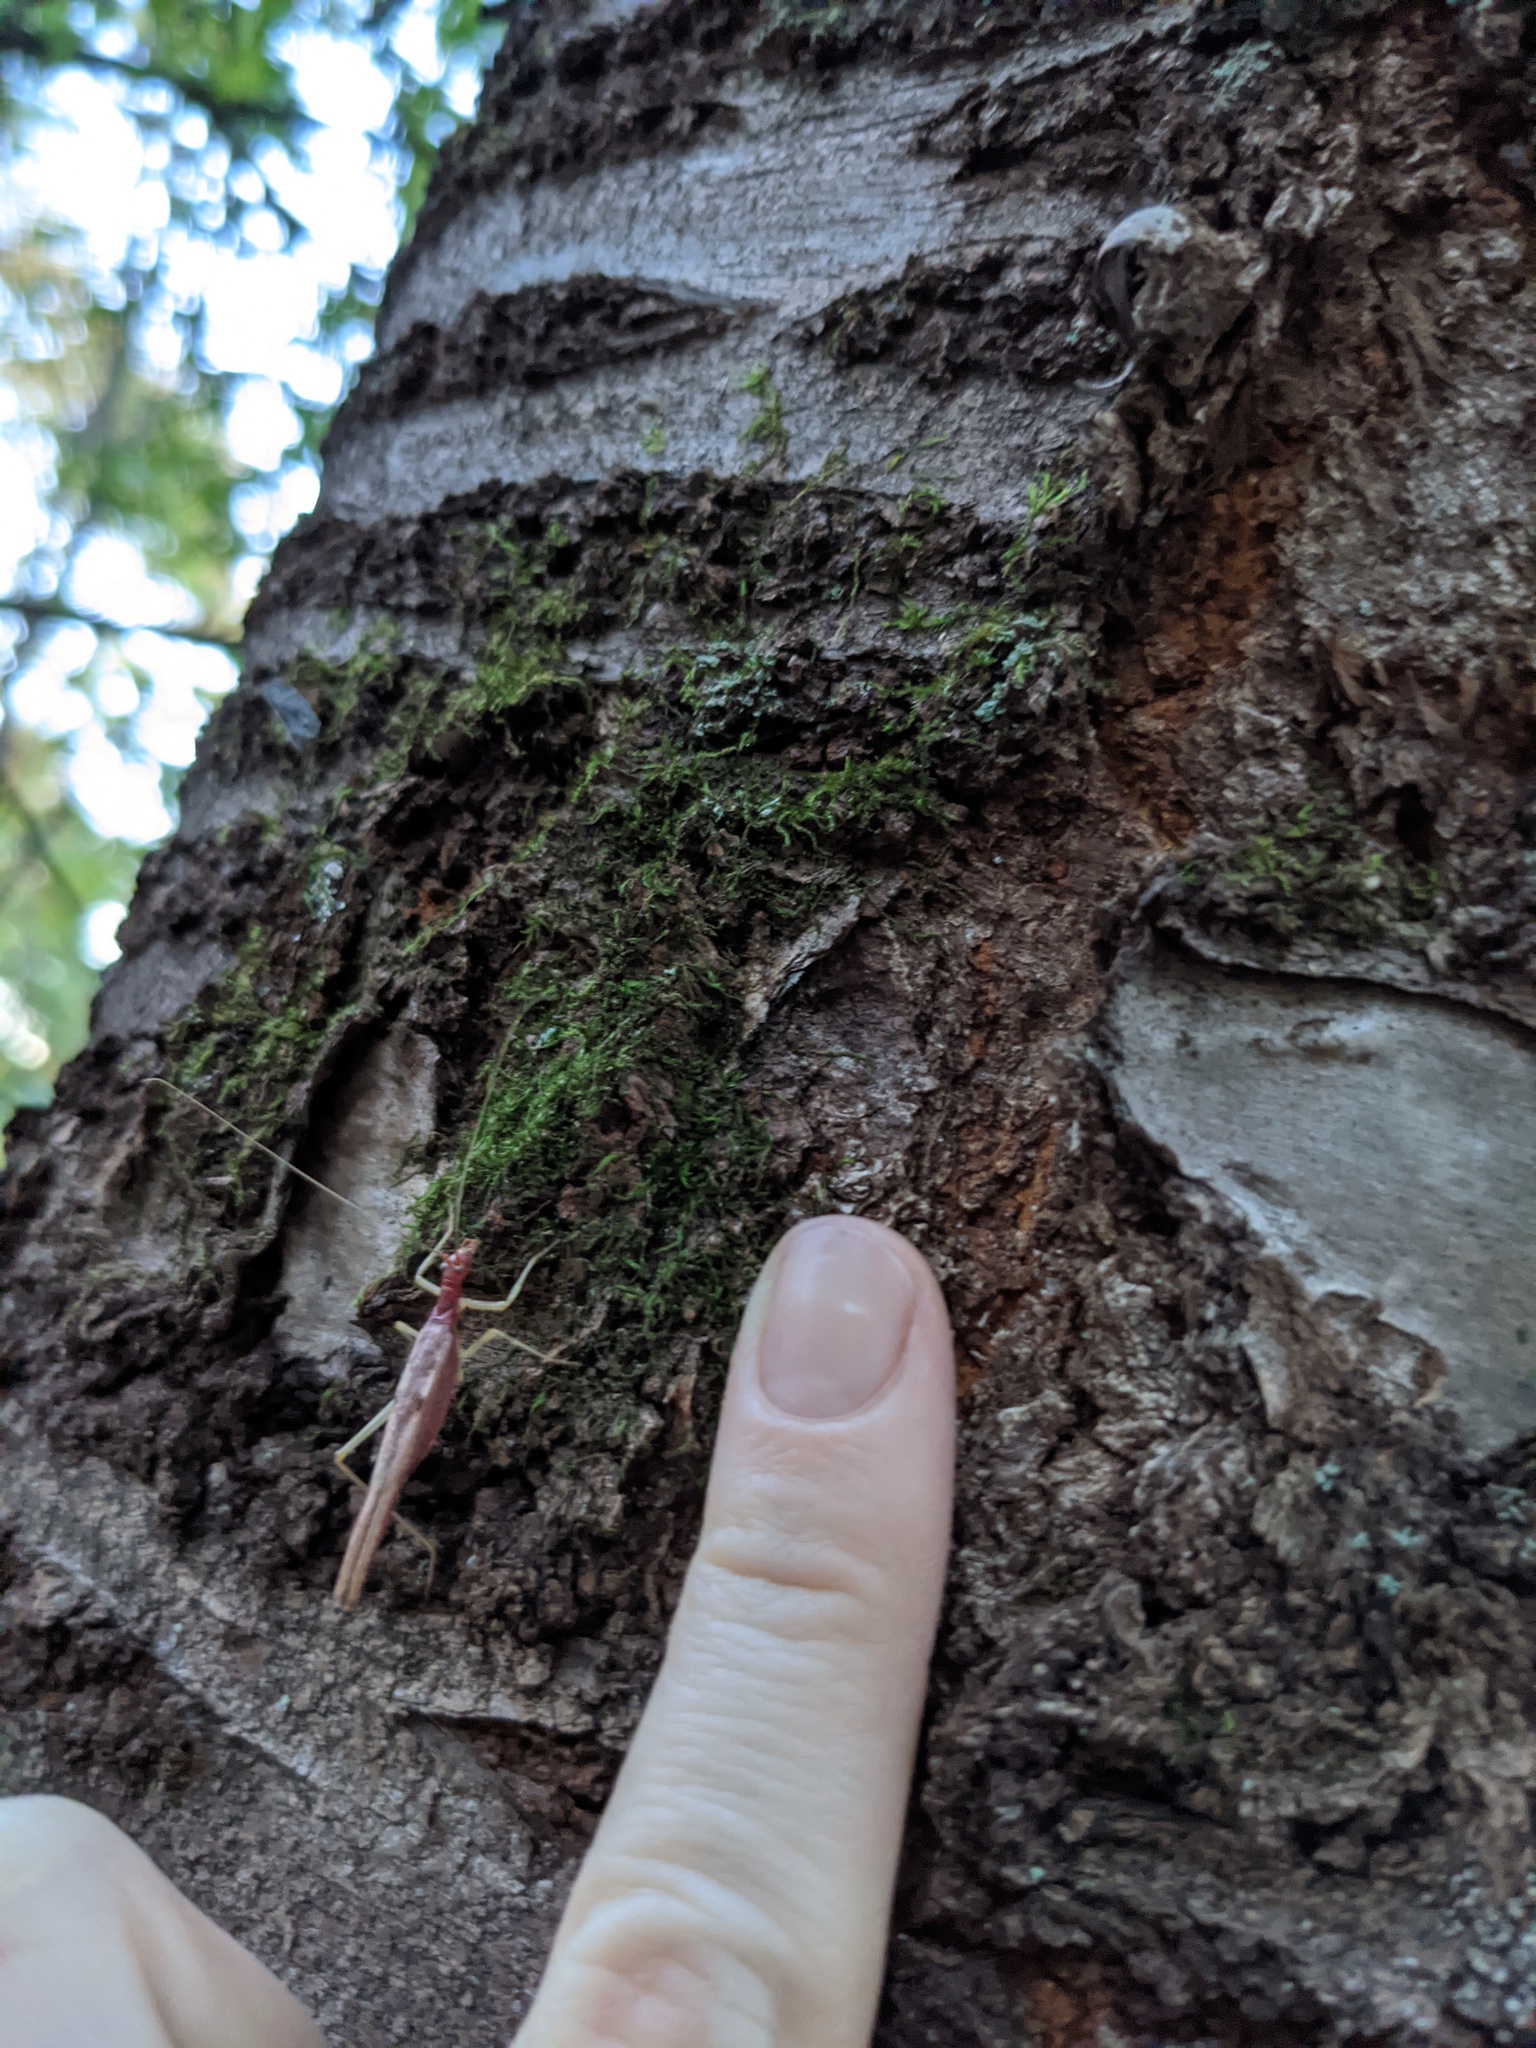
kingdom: Animalia
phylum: Arthropoda
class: Insecta
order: Orthoptera
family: Gryllidae
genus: Neoxabea
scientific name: Neoxabea bipunctata
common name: Two-spotted tree cricket
